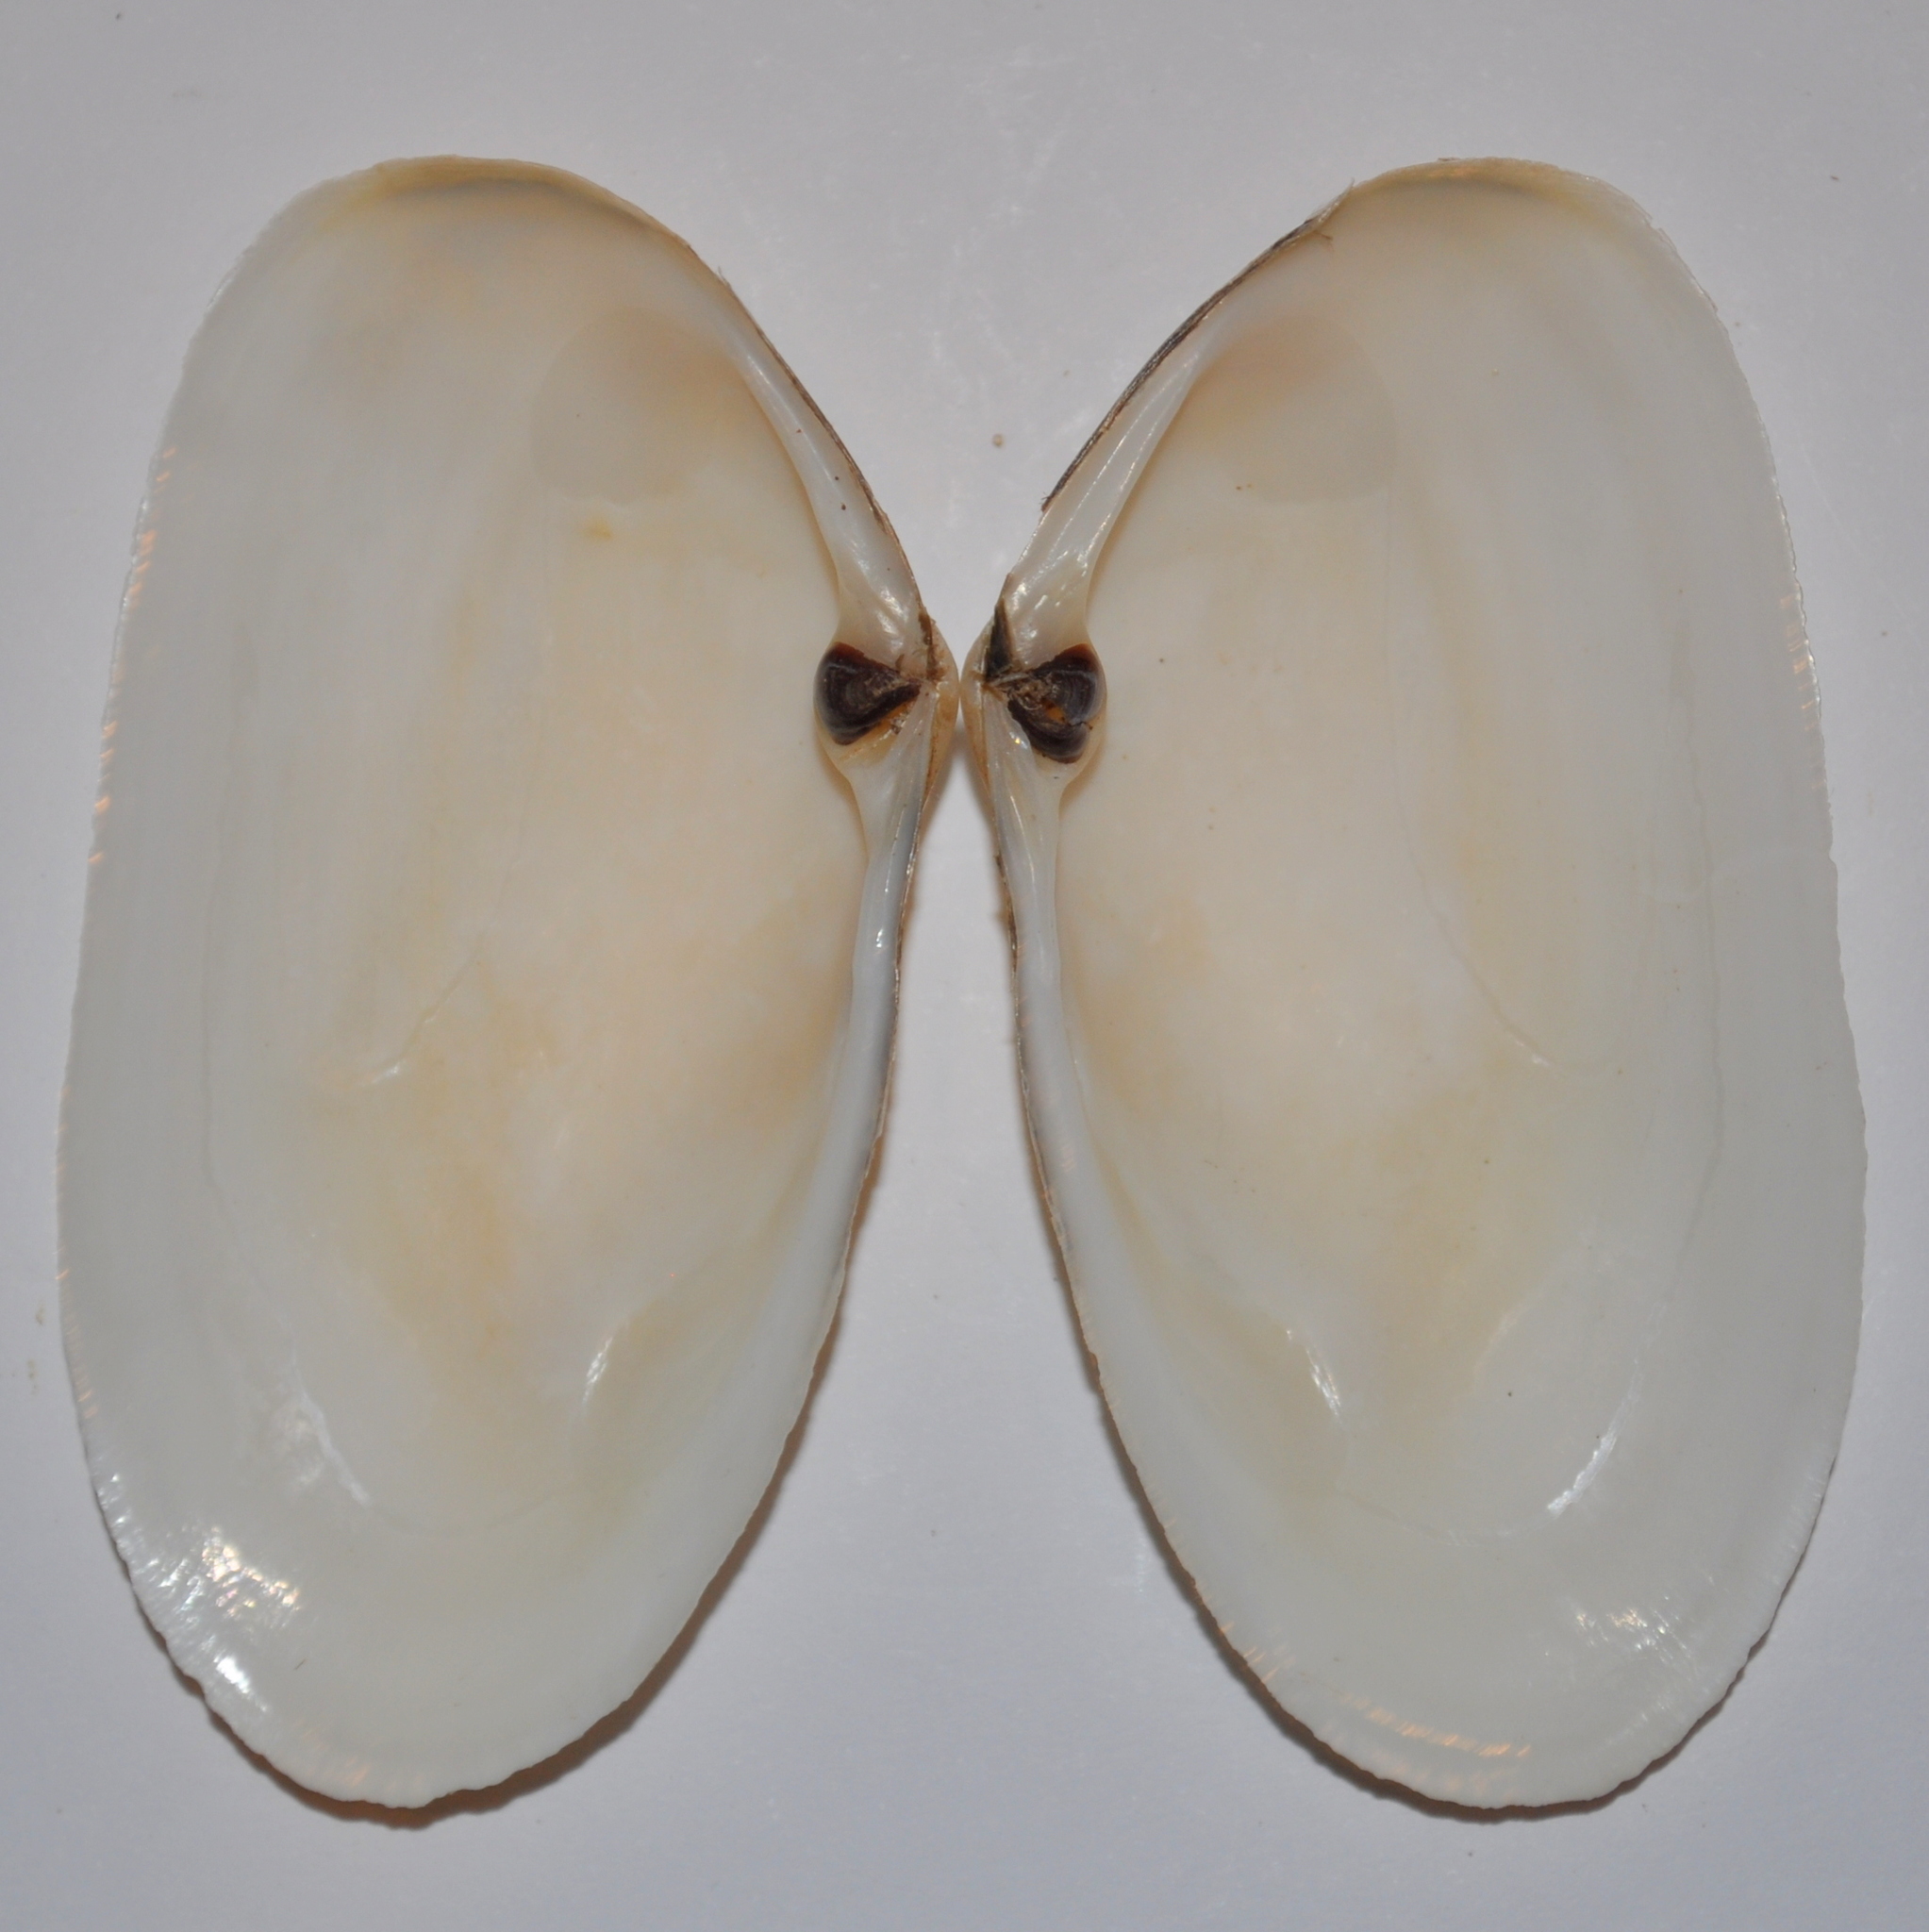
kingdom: Animalia
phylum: Mollusca
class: Bivalvia
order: Venerida
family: Mesodesmatidae
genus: Amarilladesma
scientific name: Amarilladesma mactroides
